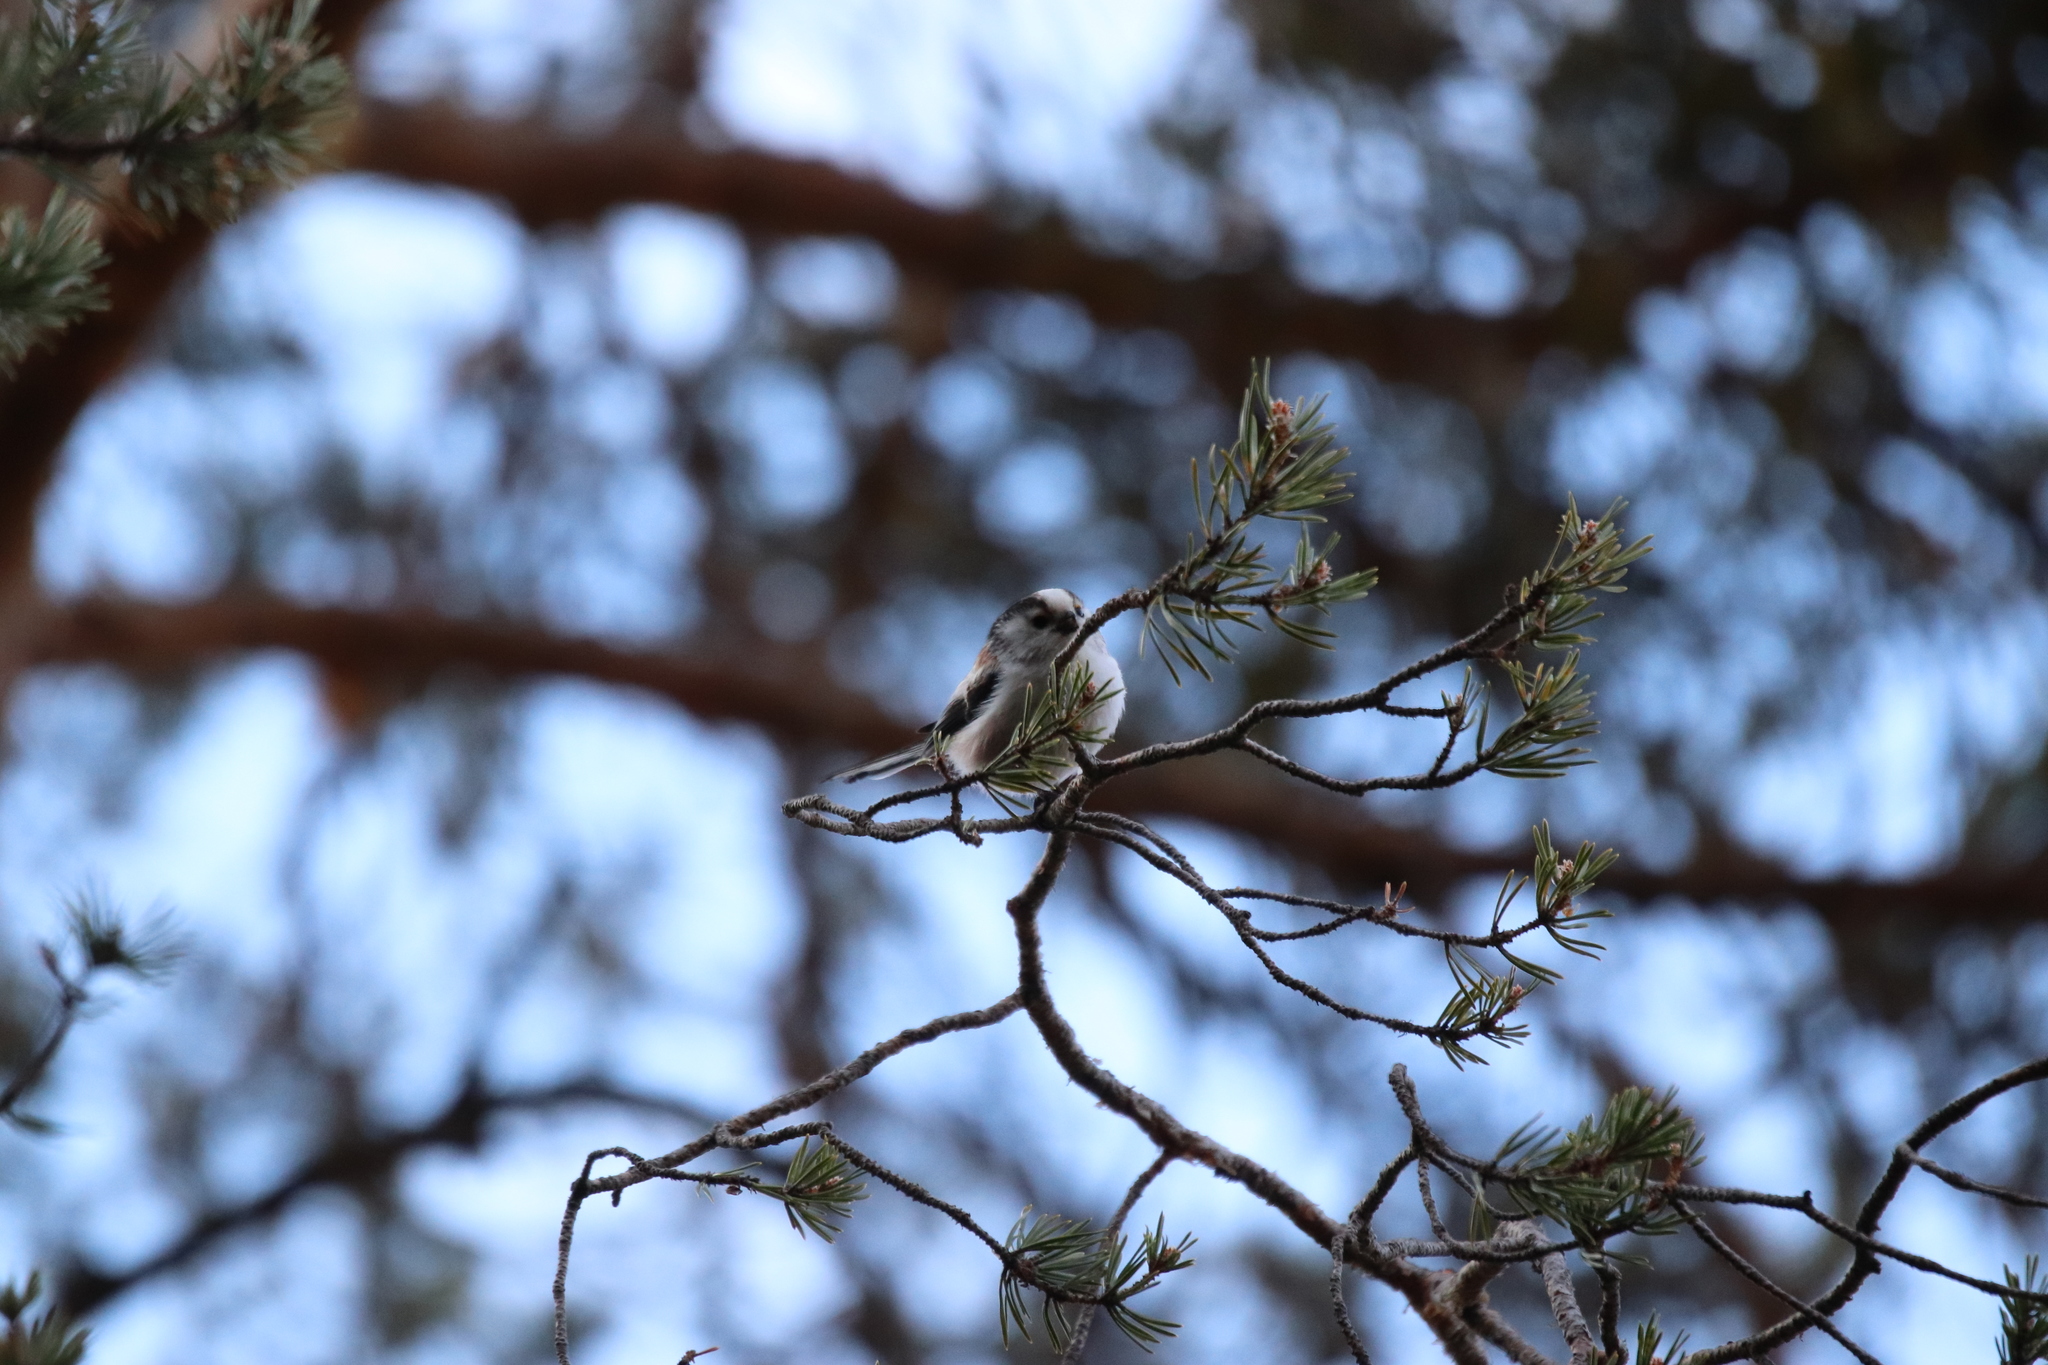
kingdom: Animalia
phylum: Chordata
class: Aves
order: Passeriformes
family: Aegithalidae
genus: Aegithalos
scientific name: Aegithalos caudatus
